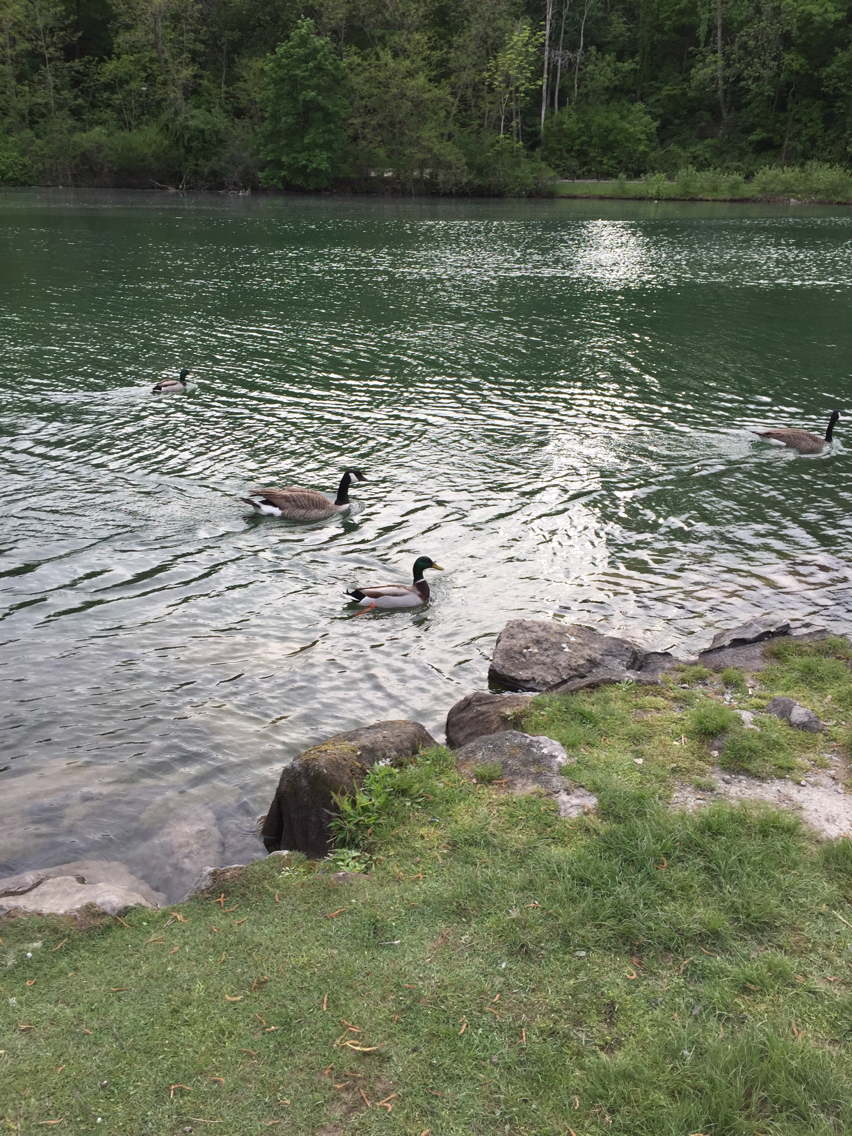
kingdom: Animalia
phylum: Chordata
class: Aves
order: Anseriformes
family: Anatidae
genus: Anas
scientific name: Anas platyrhynchos
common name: Mallard
